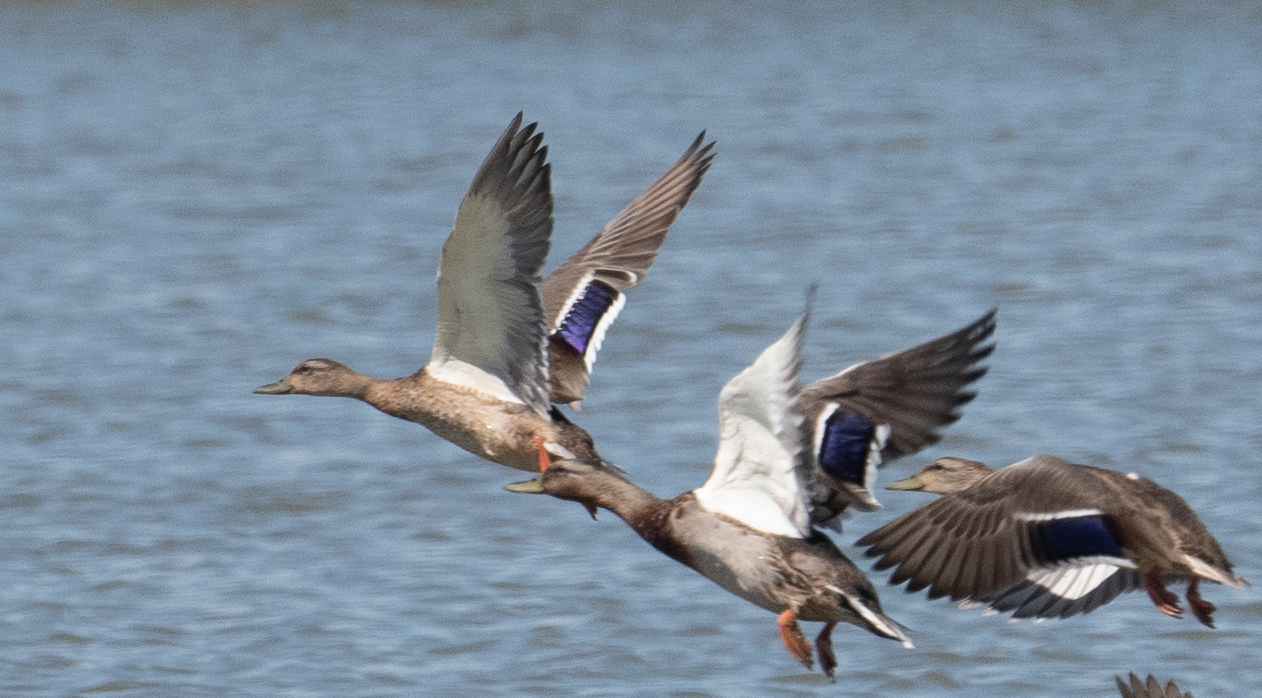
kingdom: Animalia
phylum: Chordata
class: Aves
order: Anseriformes
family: Anatidae
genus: Anas
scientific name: Anas platyrhynchos
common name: Mallard
